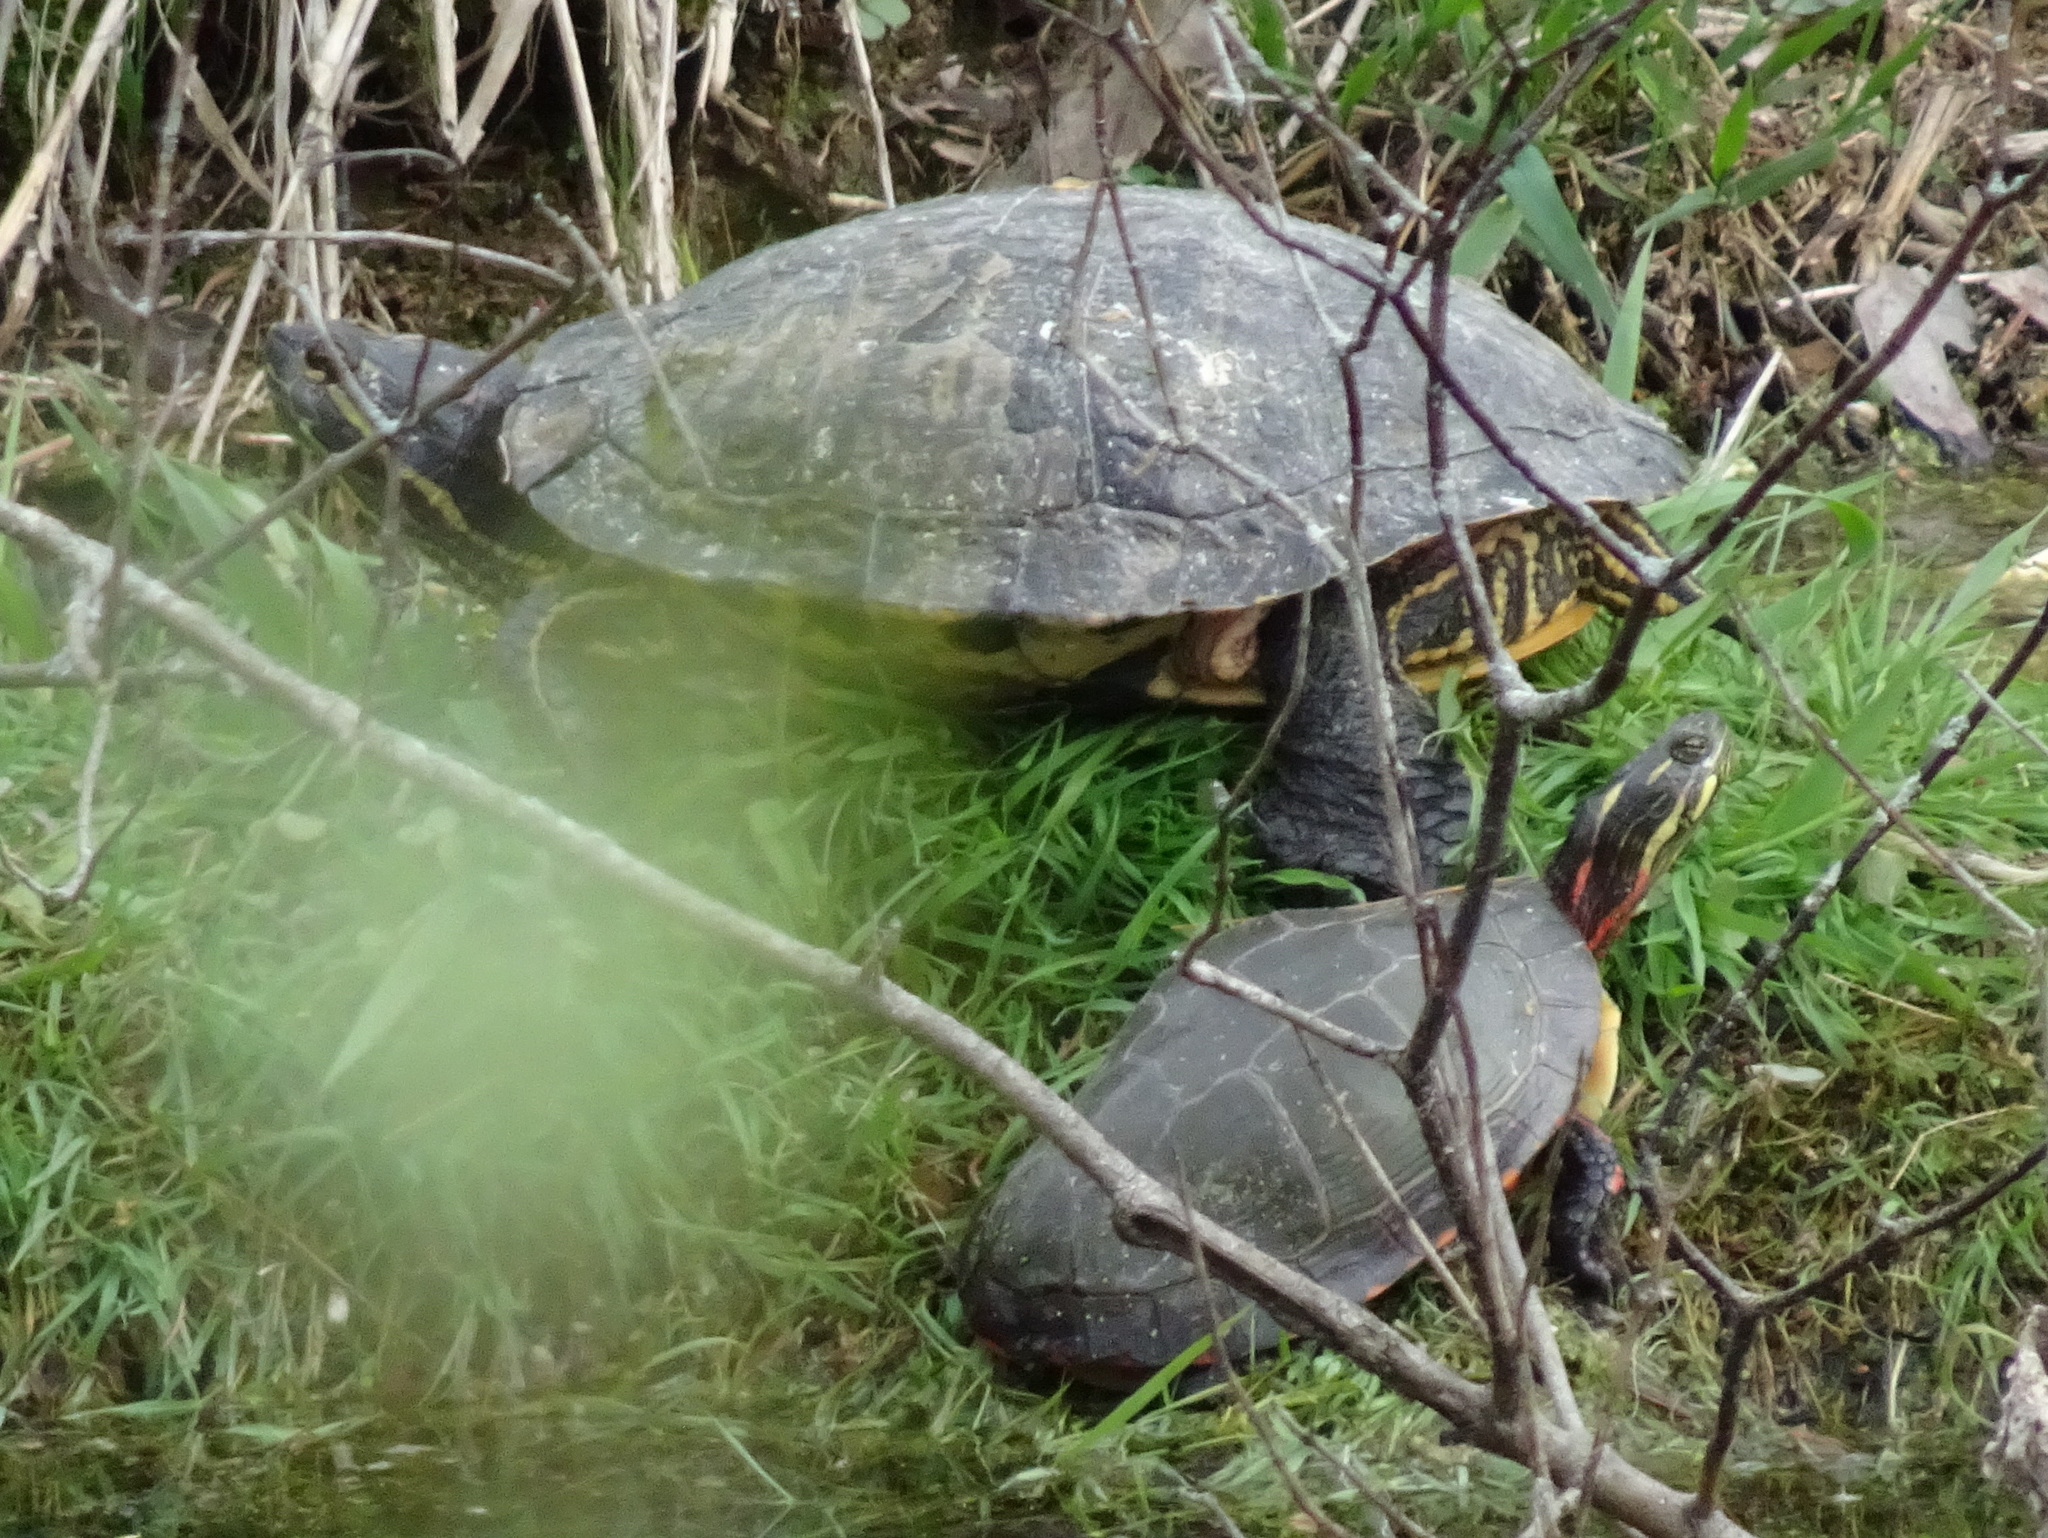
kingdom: Animalia
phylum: Chordata
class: Testudines
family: Emydidae
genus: Chrysemys
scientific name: Chrysemys picta
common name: Painted turtle
